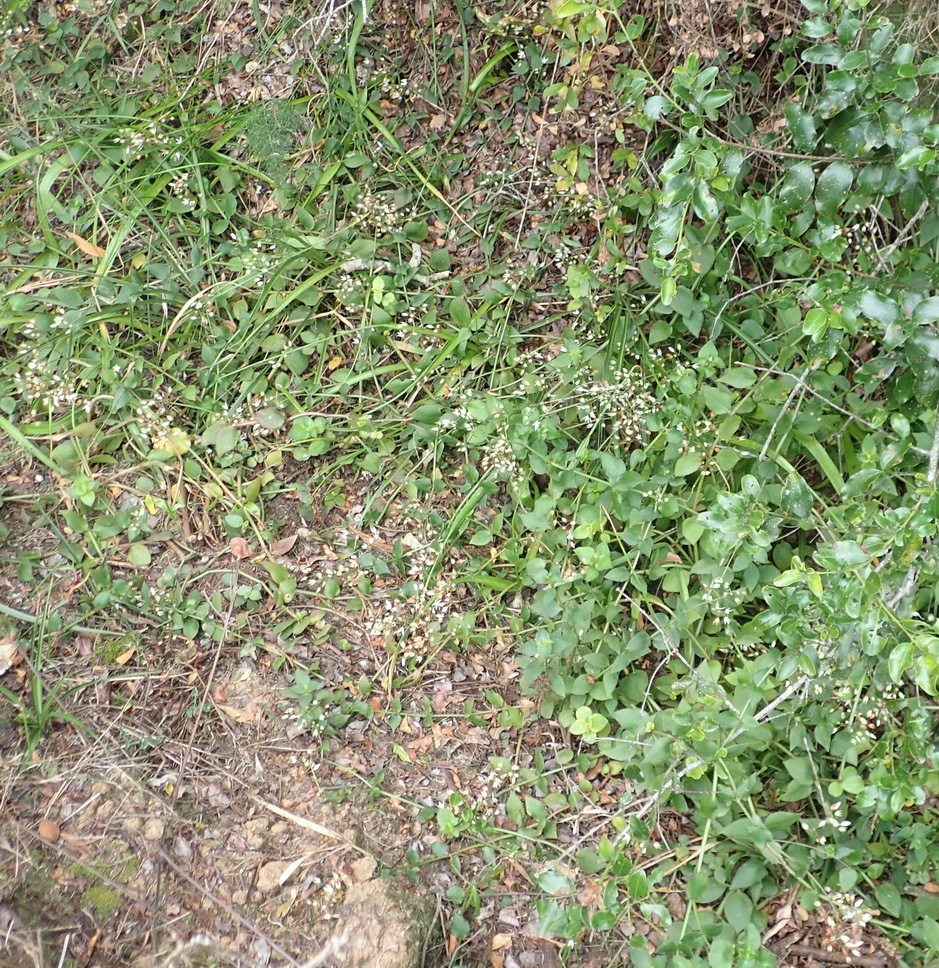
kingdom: Plantae
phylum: Tracheophyta
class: Magnoliopsida
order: Saxifragales
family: Crassulaceae
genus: Crassula
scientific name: Crassula sarmentosa
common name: Jade-tree
